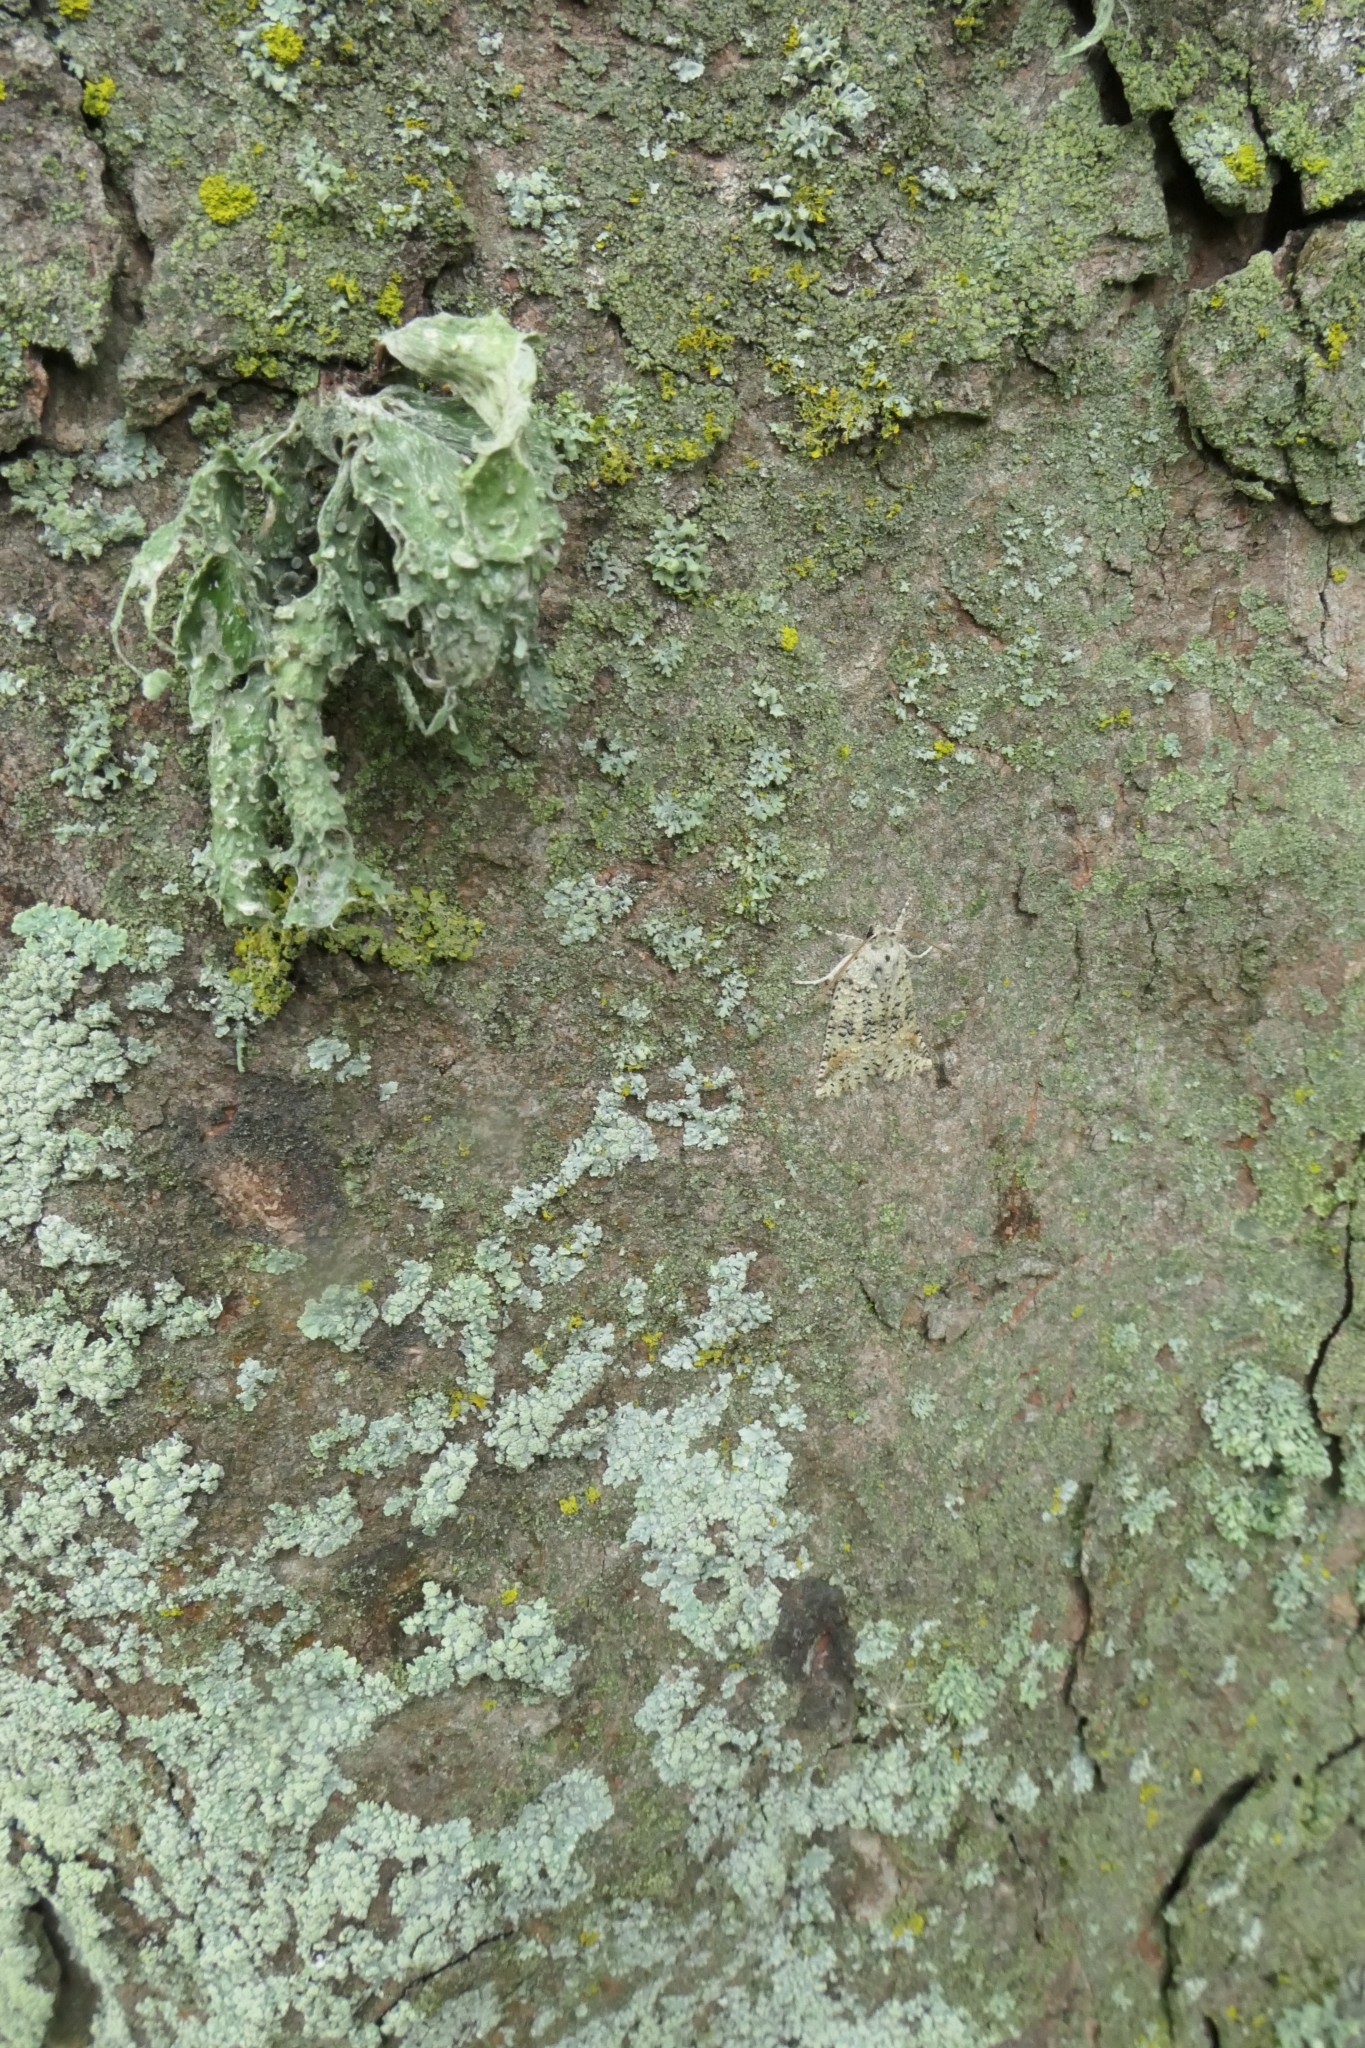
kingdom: Animalia
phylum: Arthropoda
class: Insecta
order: Lepidoptera
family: Geometridae
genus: Declana
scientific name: Declana floccosa
